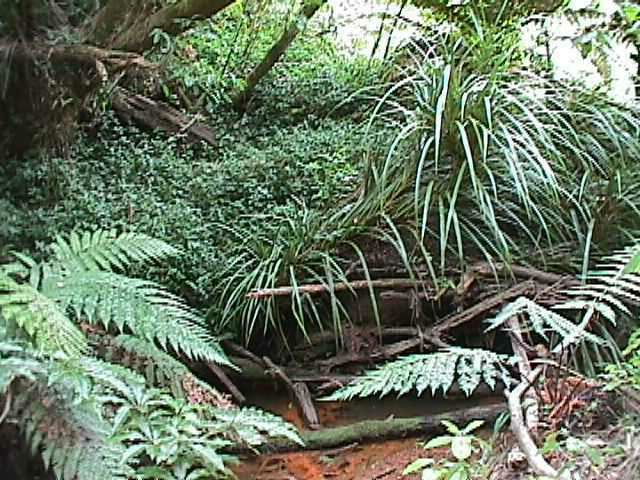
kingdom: Plantae
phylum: Tracheophyta
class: Liliopsida
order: Pandanales
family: Pandanaceae
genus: Freycinetia
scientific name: Freycinetia banksii
